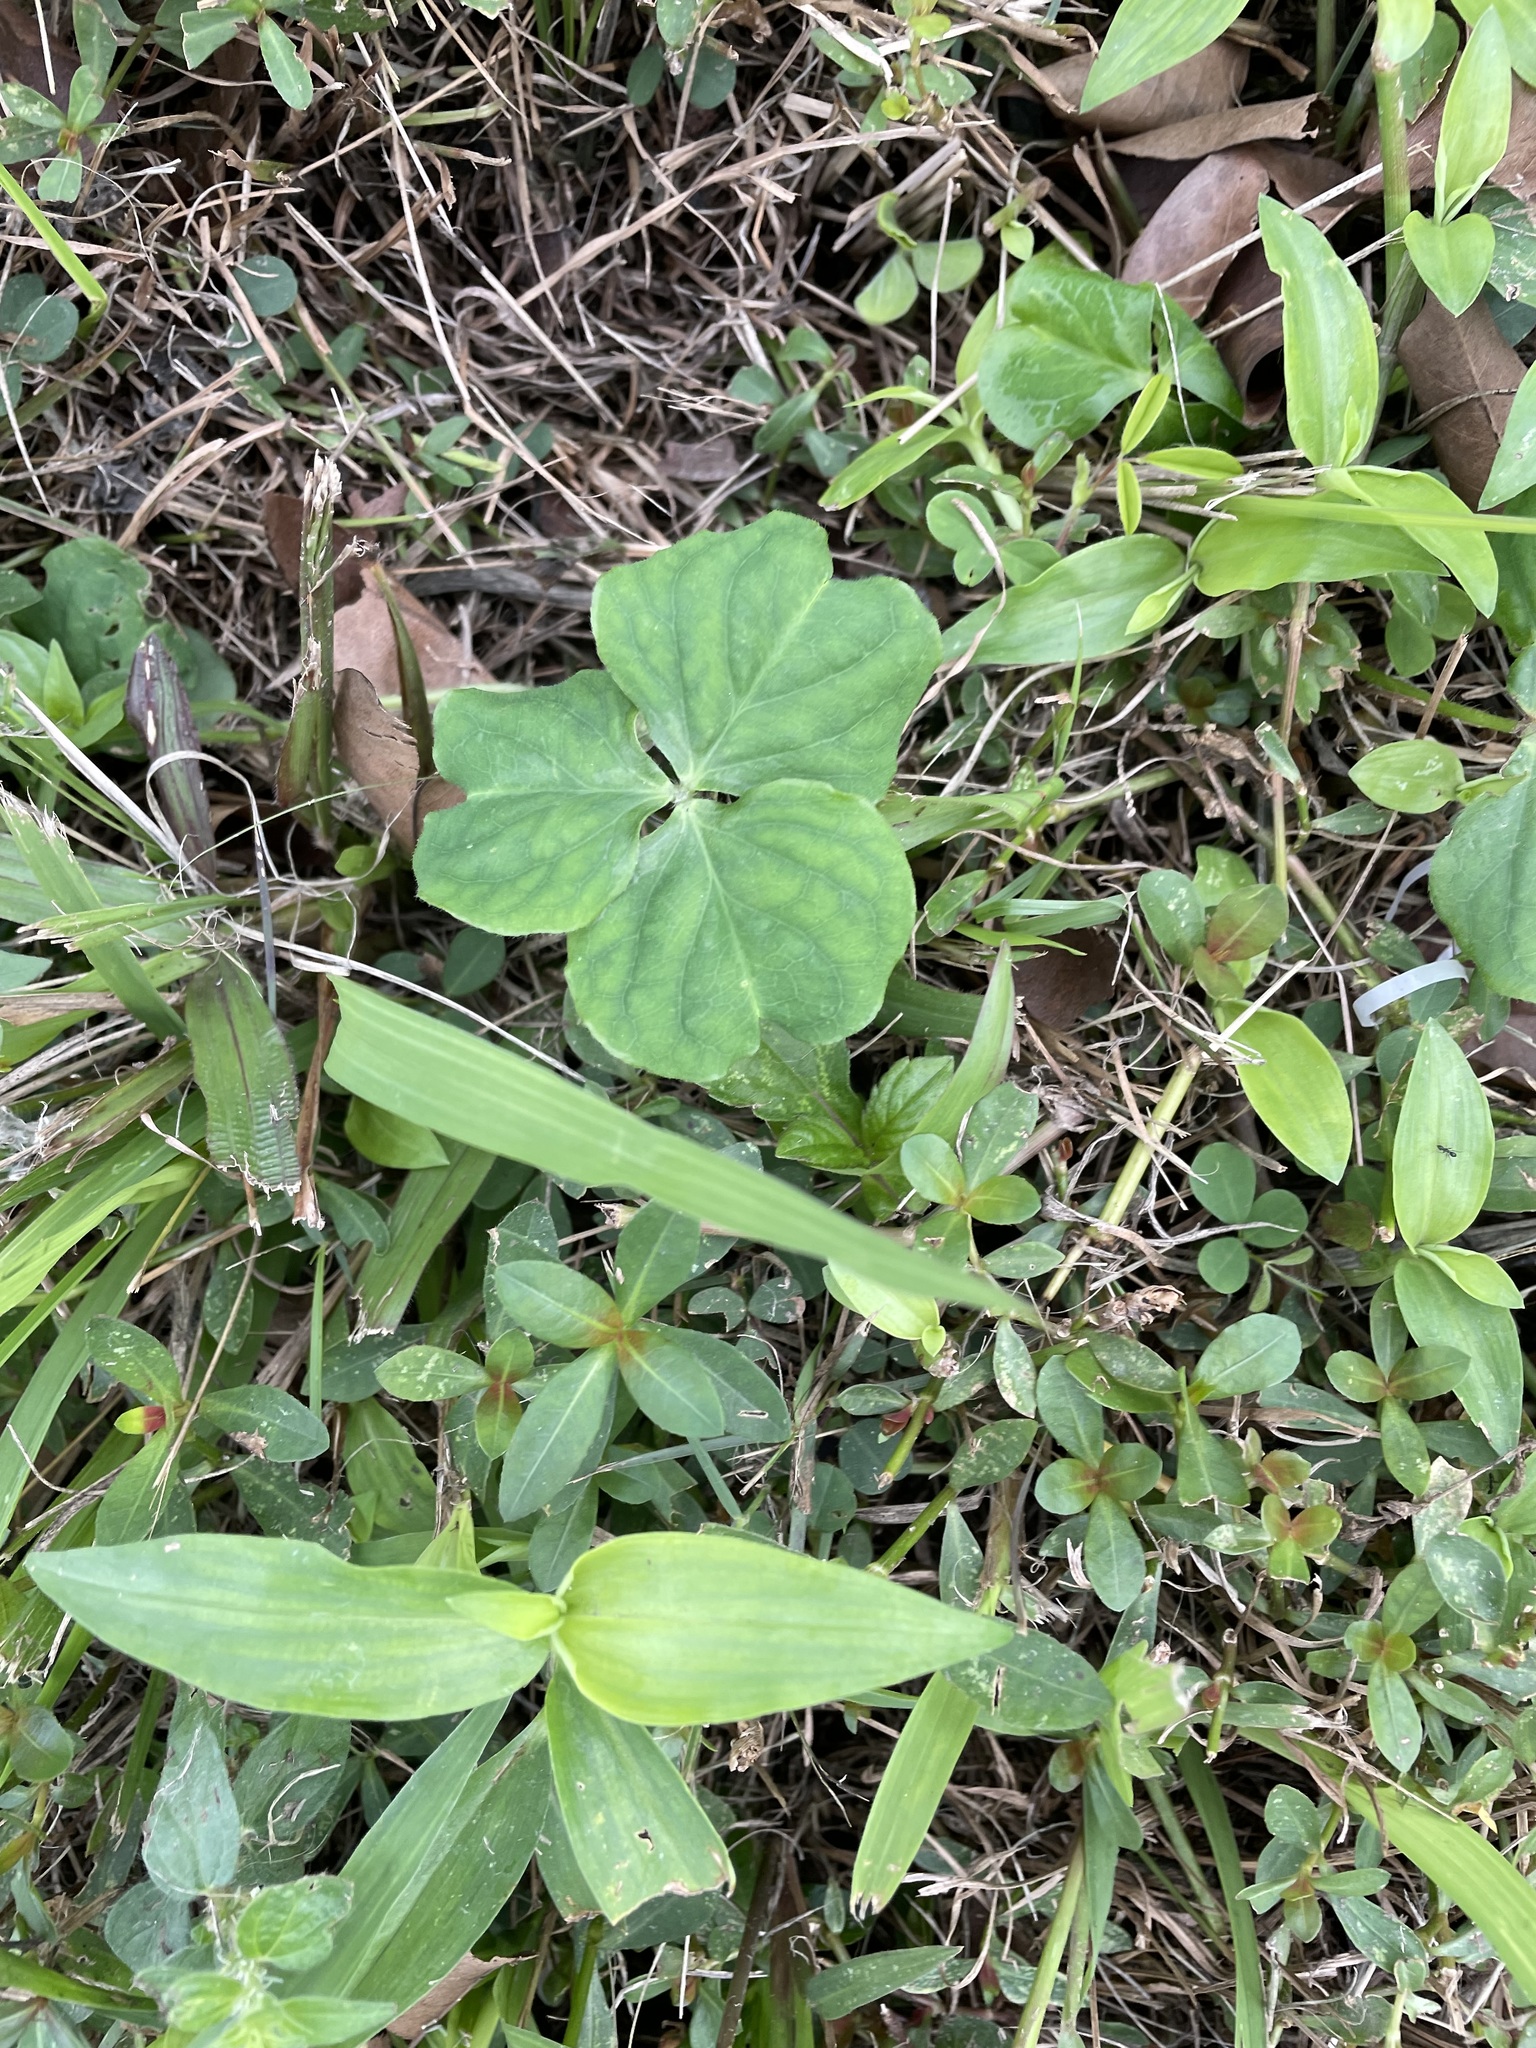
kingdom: Plantae
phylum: Tracheophyta
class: Magnoliopsida
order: Oxalidales
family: Oxalidaceae
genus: Oxalis
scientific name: Oxalis debilis
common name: Large-flowered pink-sorrel
